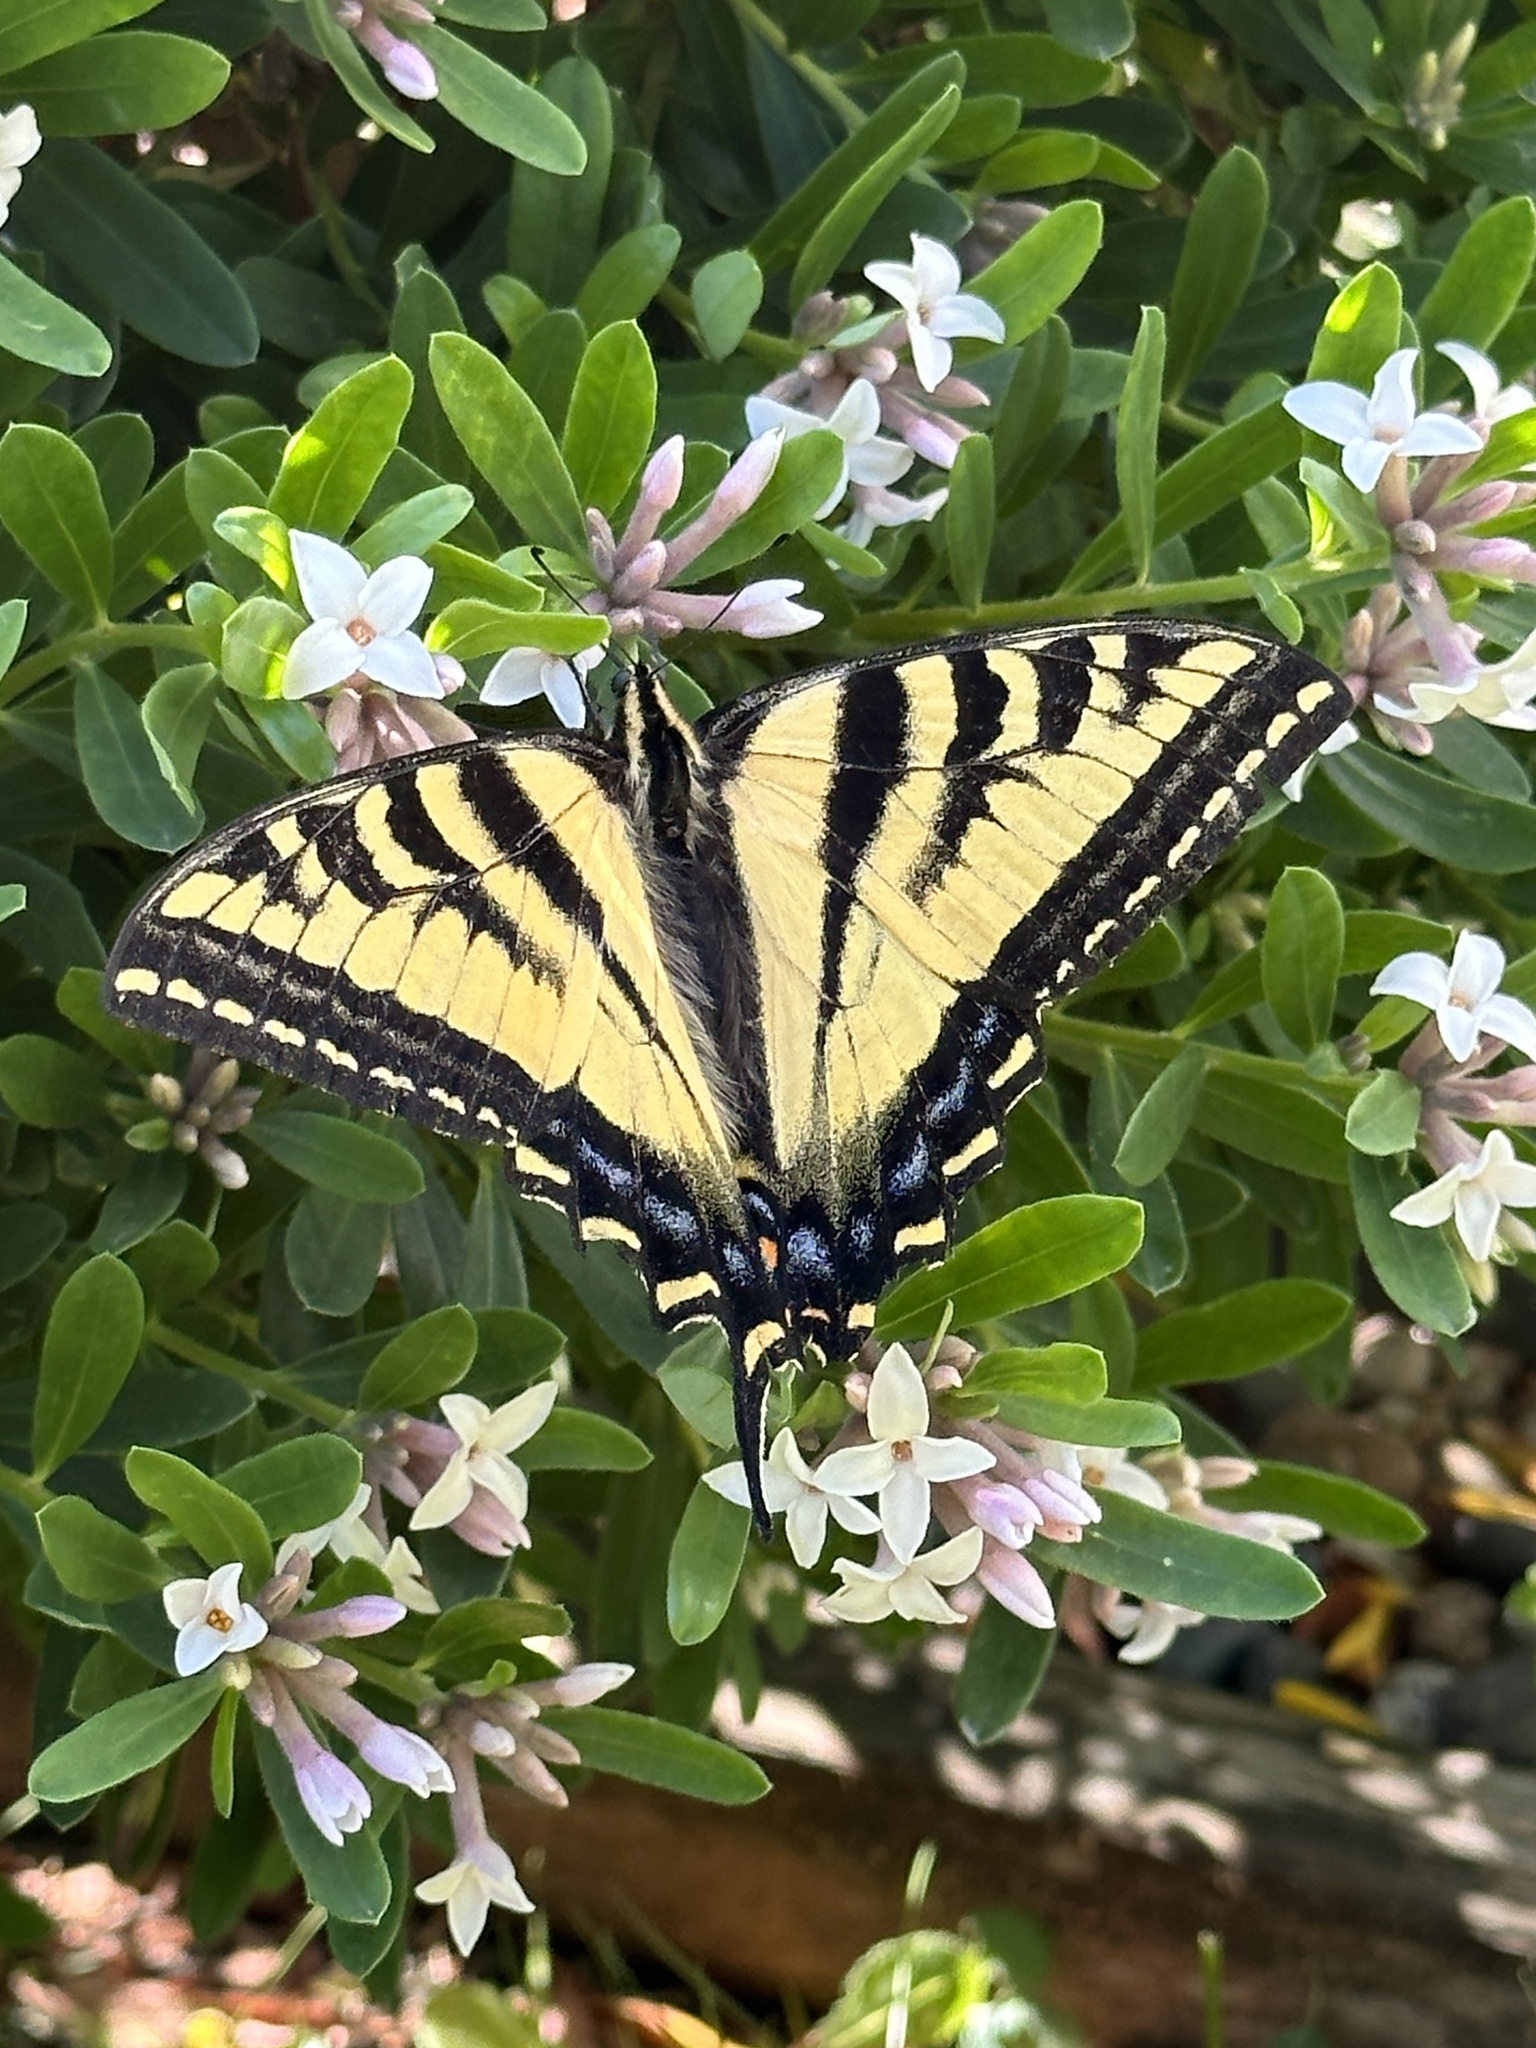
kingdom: Animalia
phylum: Arthropoda
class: Insecta
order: Lepidoptera
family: Papilionidae
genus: Papilio
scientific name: Papilio rutulus
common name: Western tiger swallowtail
